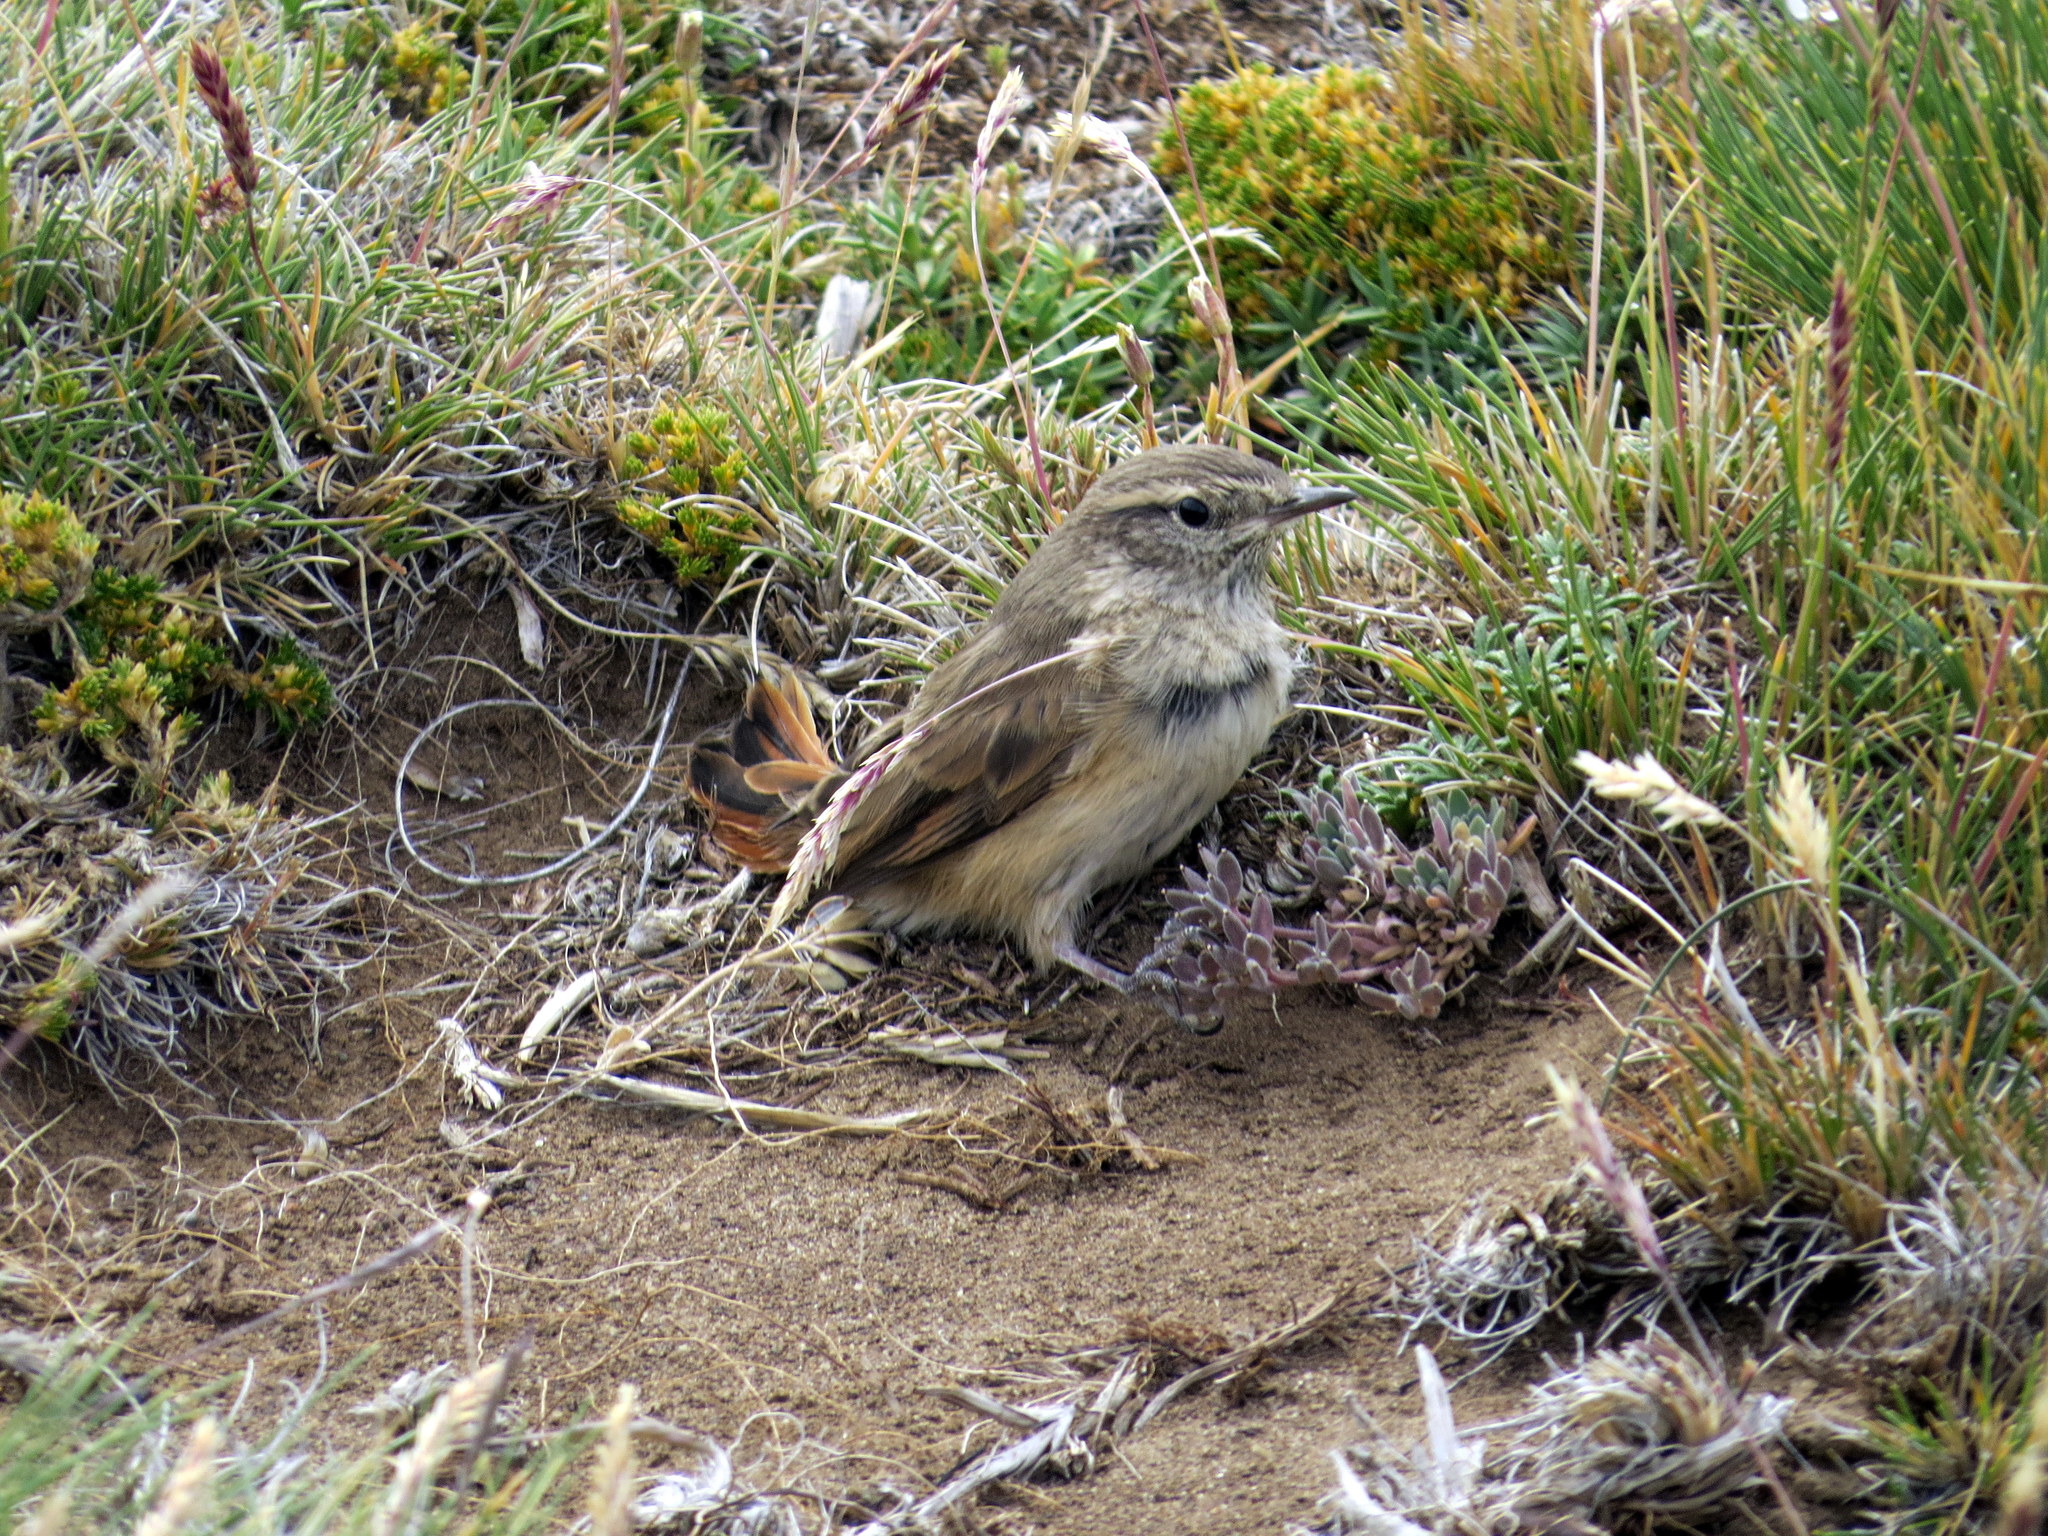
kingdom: Animalia
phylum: Chordata
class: Aves
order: Passeriformes
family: Furnariidae
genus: Asthenes
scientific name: Asthenes modesta
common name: Cordilleran canastero
